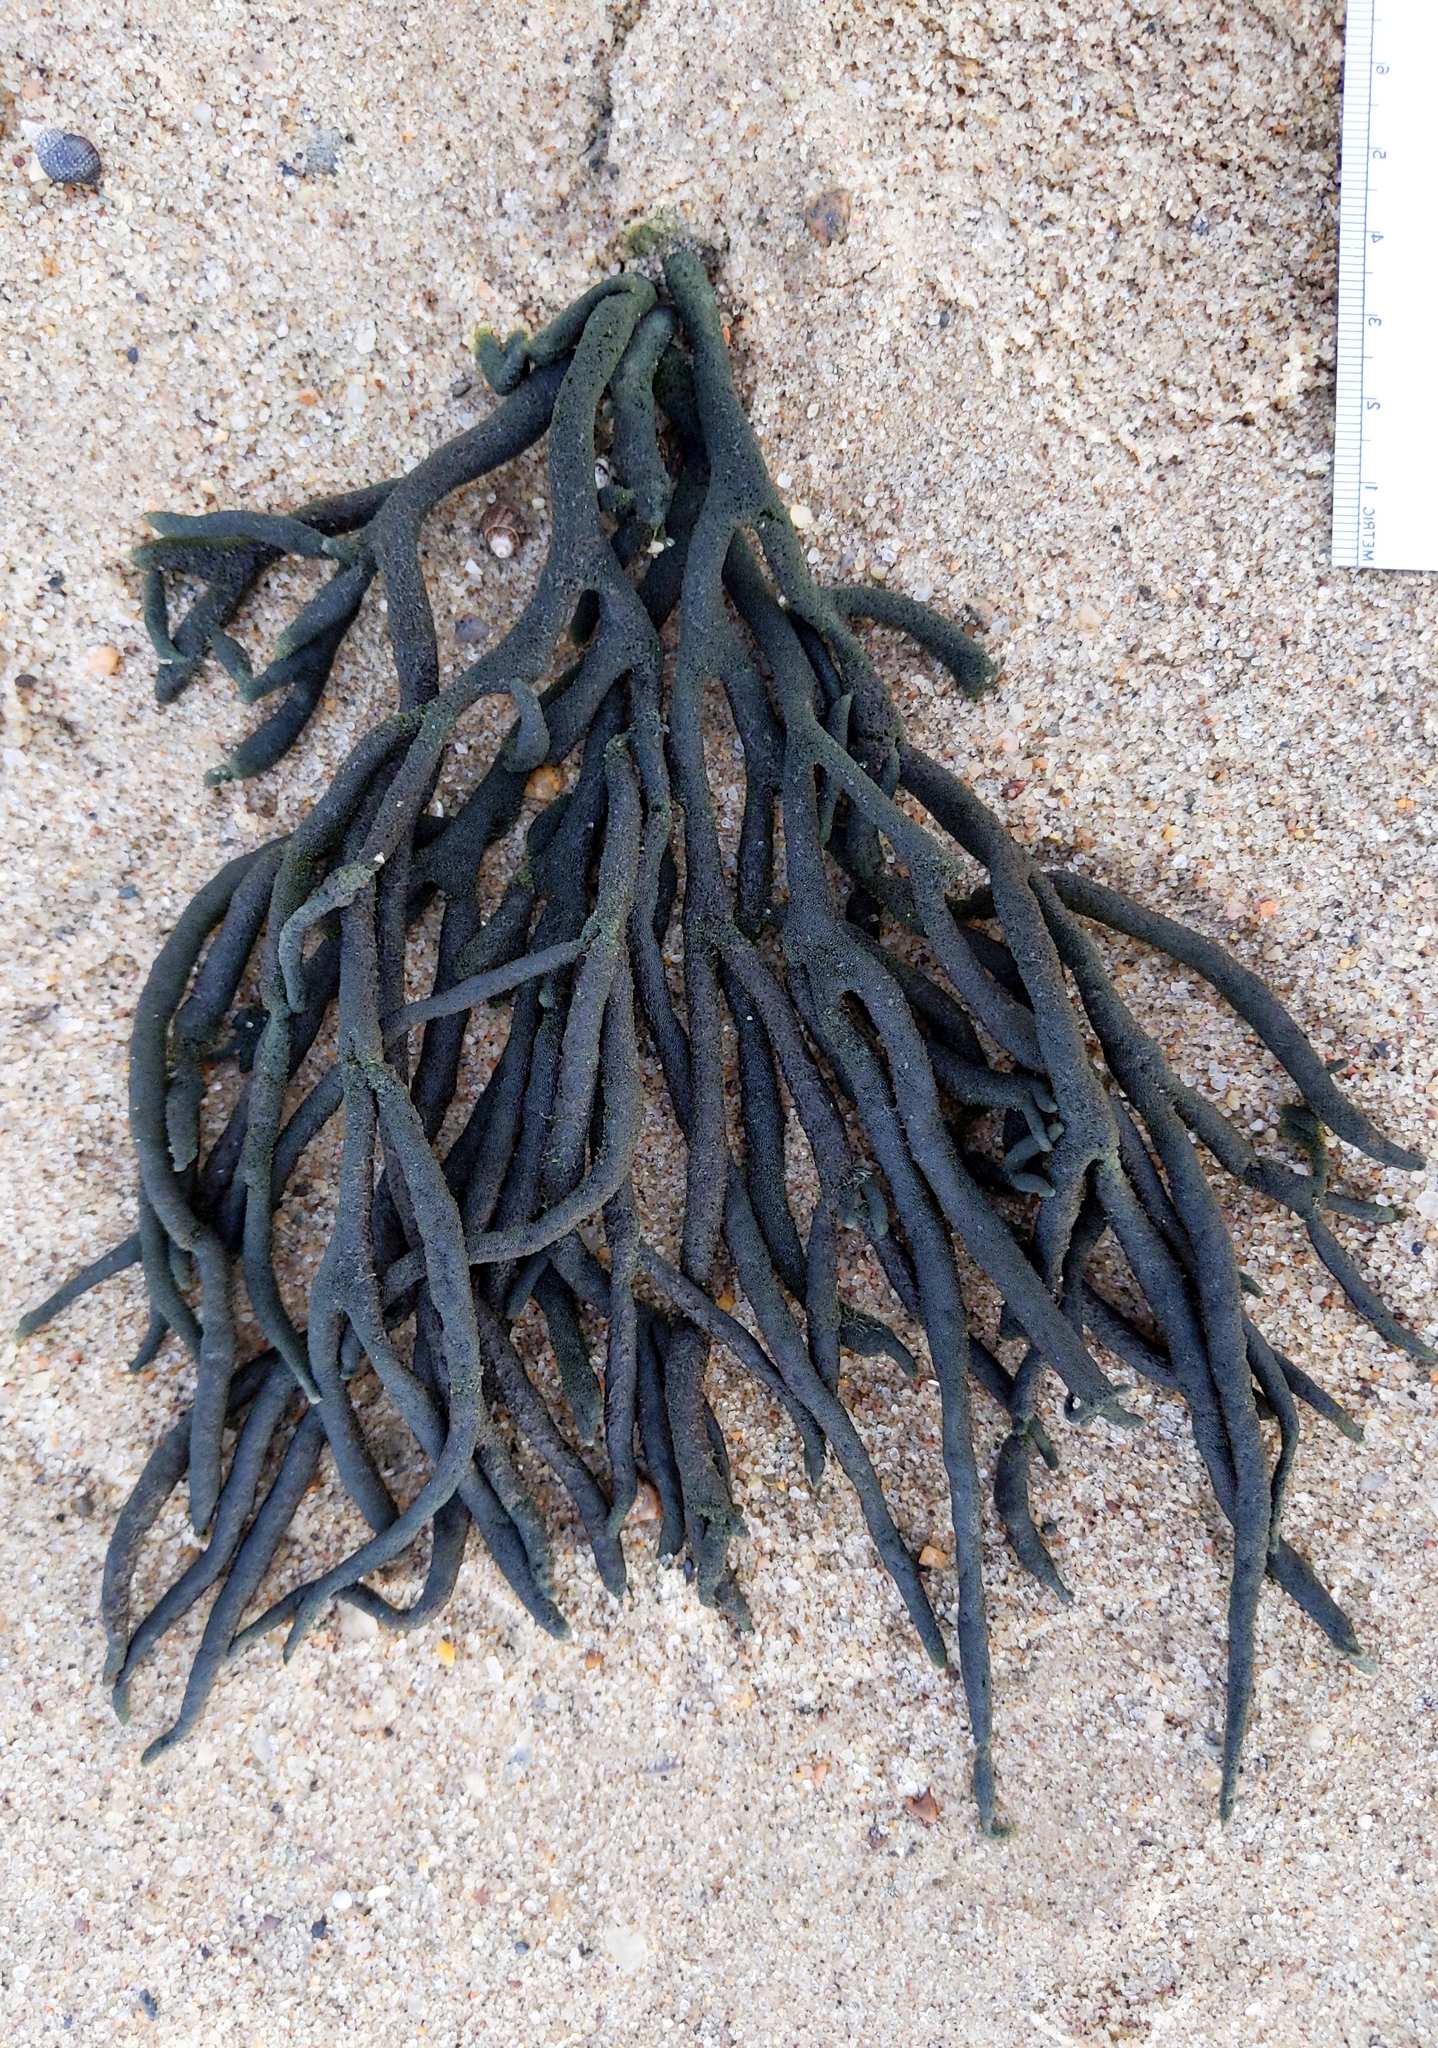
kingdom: Plantae
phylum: Chlorophyta
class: Ulvophyceae
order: Bryopsidales
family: Codiaceae
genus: Codium
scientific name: Codium fragile
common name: Dead man's fingers
